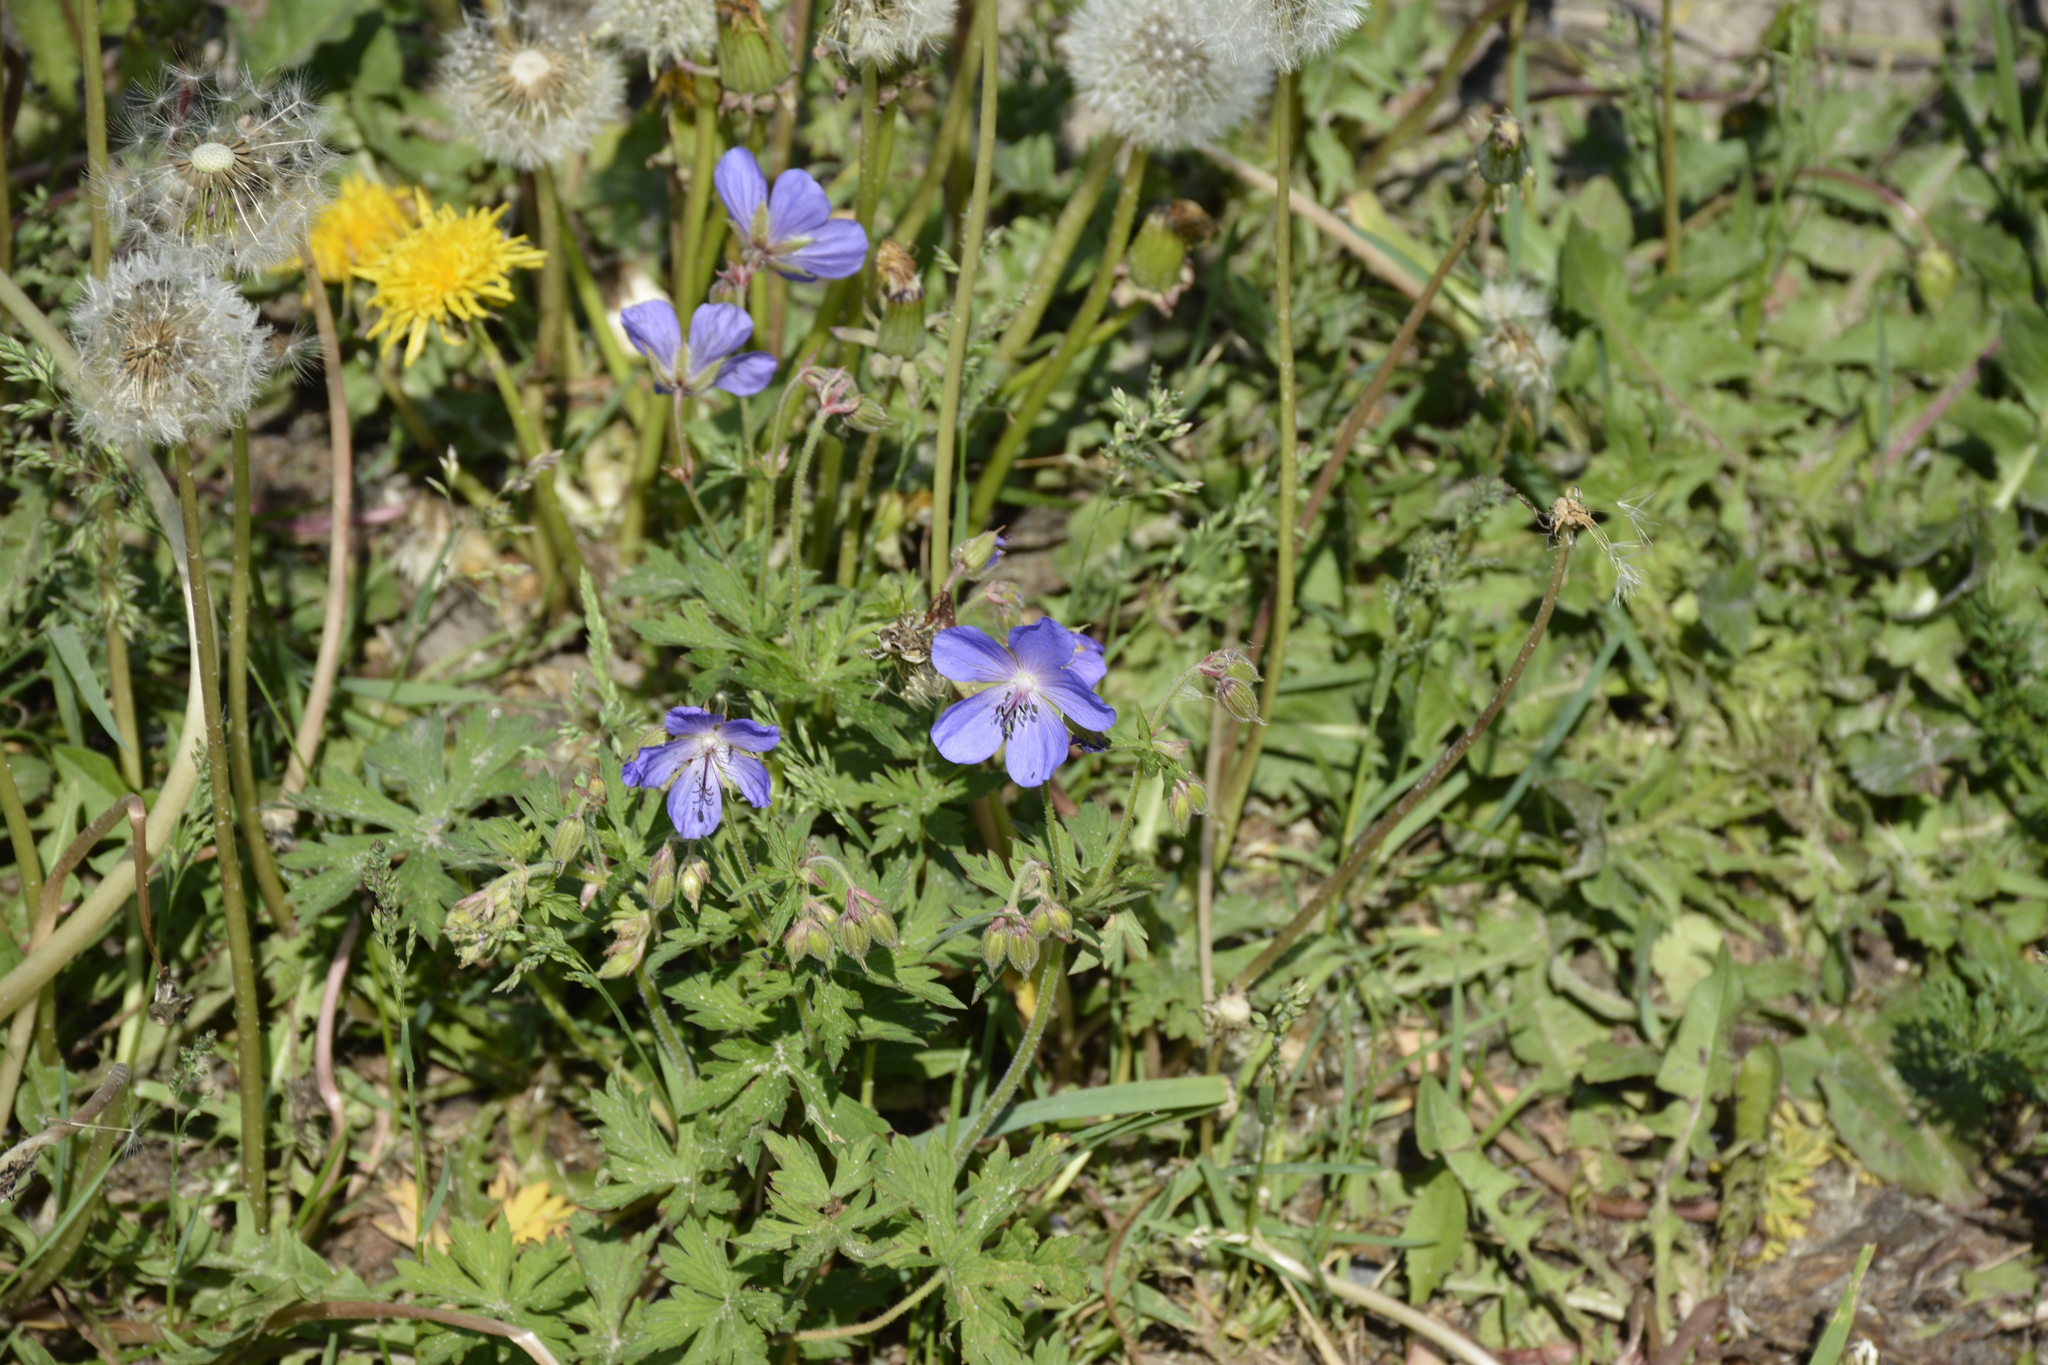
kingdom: Plantae
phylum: Tracheophyta
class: Magnoliopsida
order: Geraniales
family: Geraniaceae
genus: Geranium
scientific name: Geranium pratense
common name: Meadow crane's-bill
